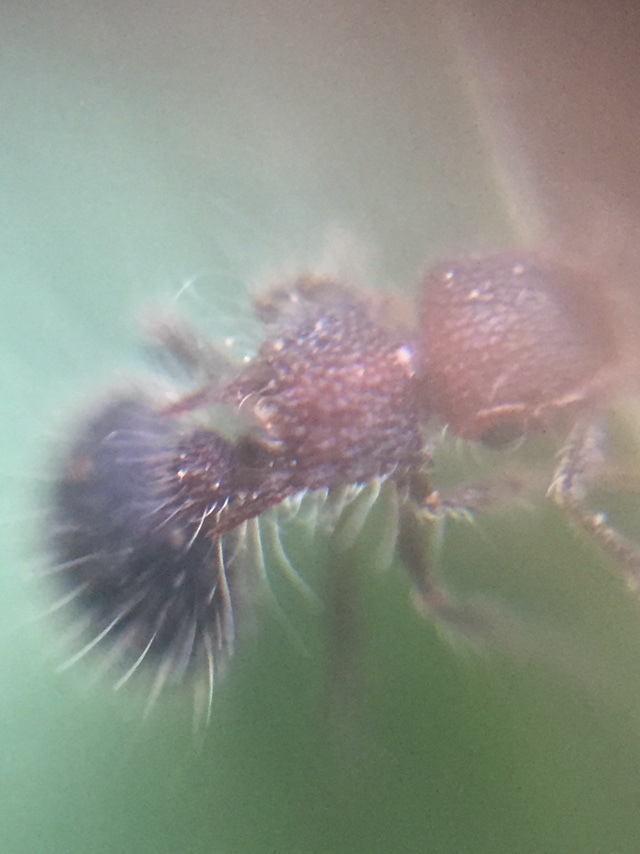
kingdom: Animalia
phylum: Arthropoda
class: Insecta
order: Hymenoptera
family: Formicidae
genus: Meranoplus
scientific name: Meranoplus bicolor
